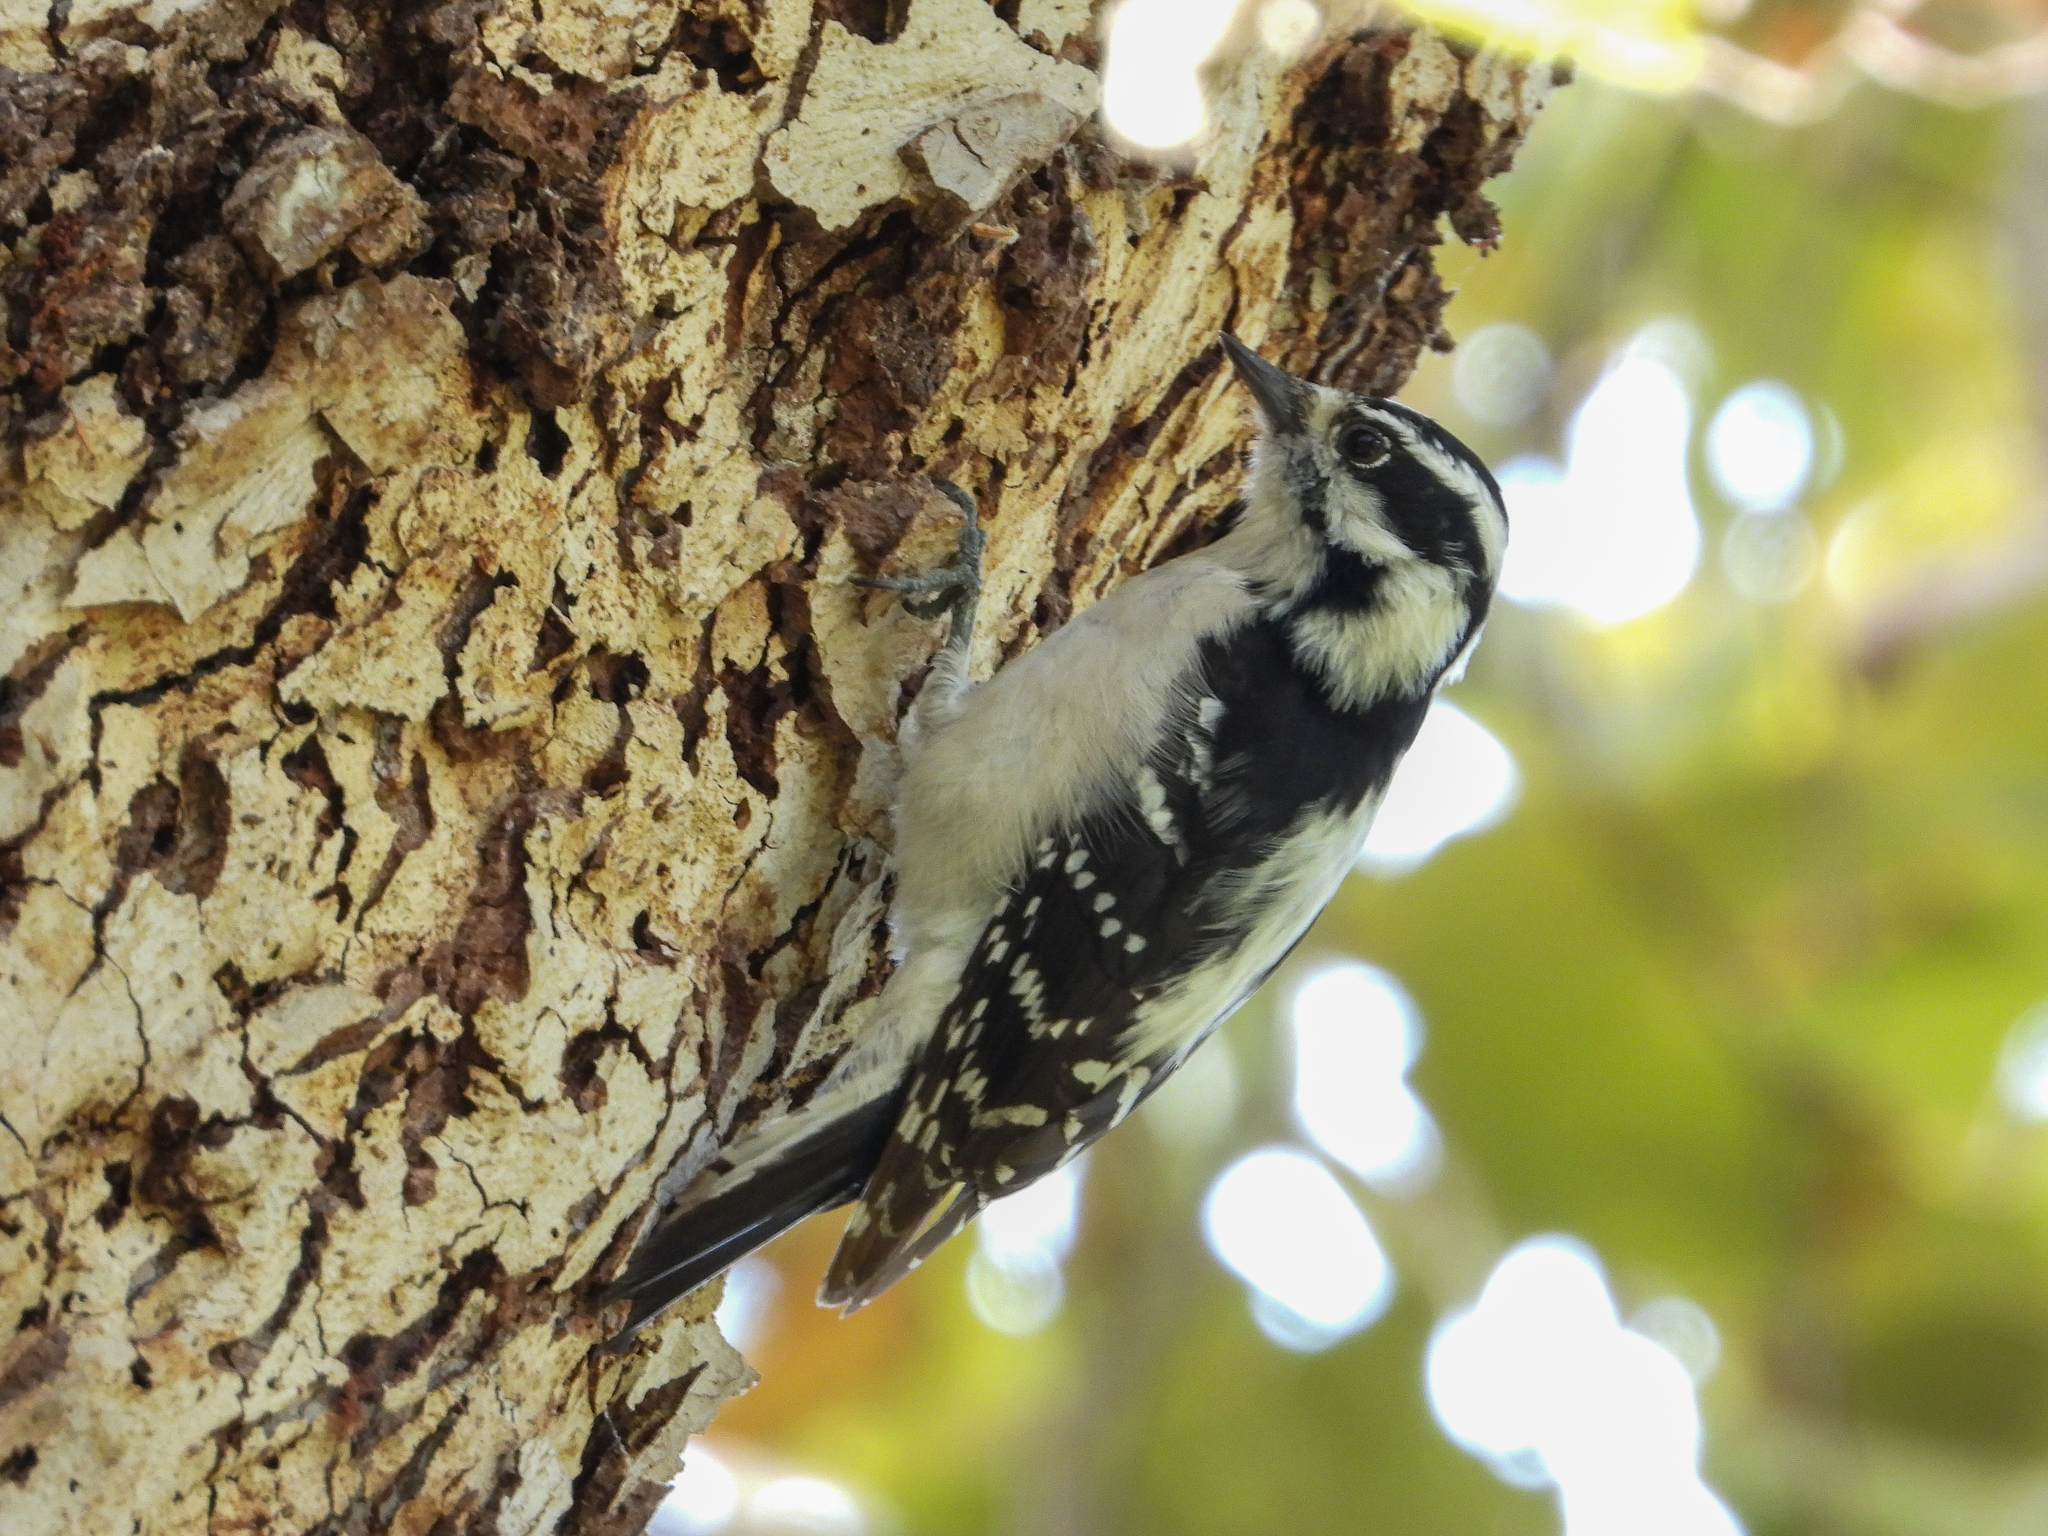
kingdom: Animalia
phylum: Chordata
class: Aves
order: Piciformes
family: Picidae
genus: Dryobates
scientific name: Dryobates pubescens
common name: Downy woodpecker
